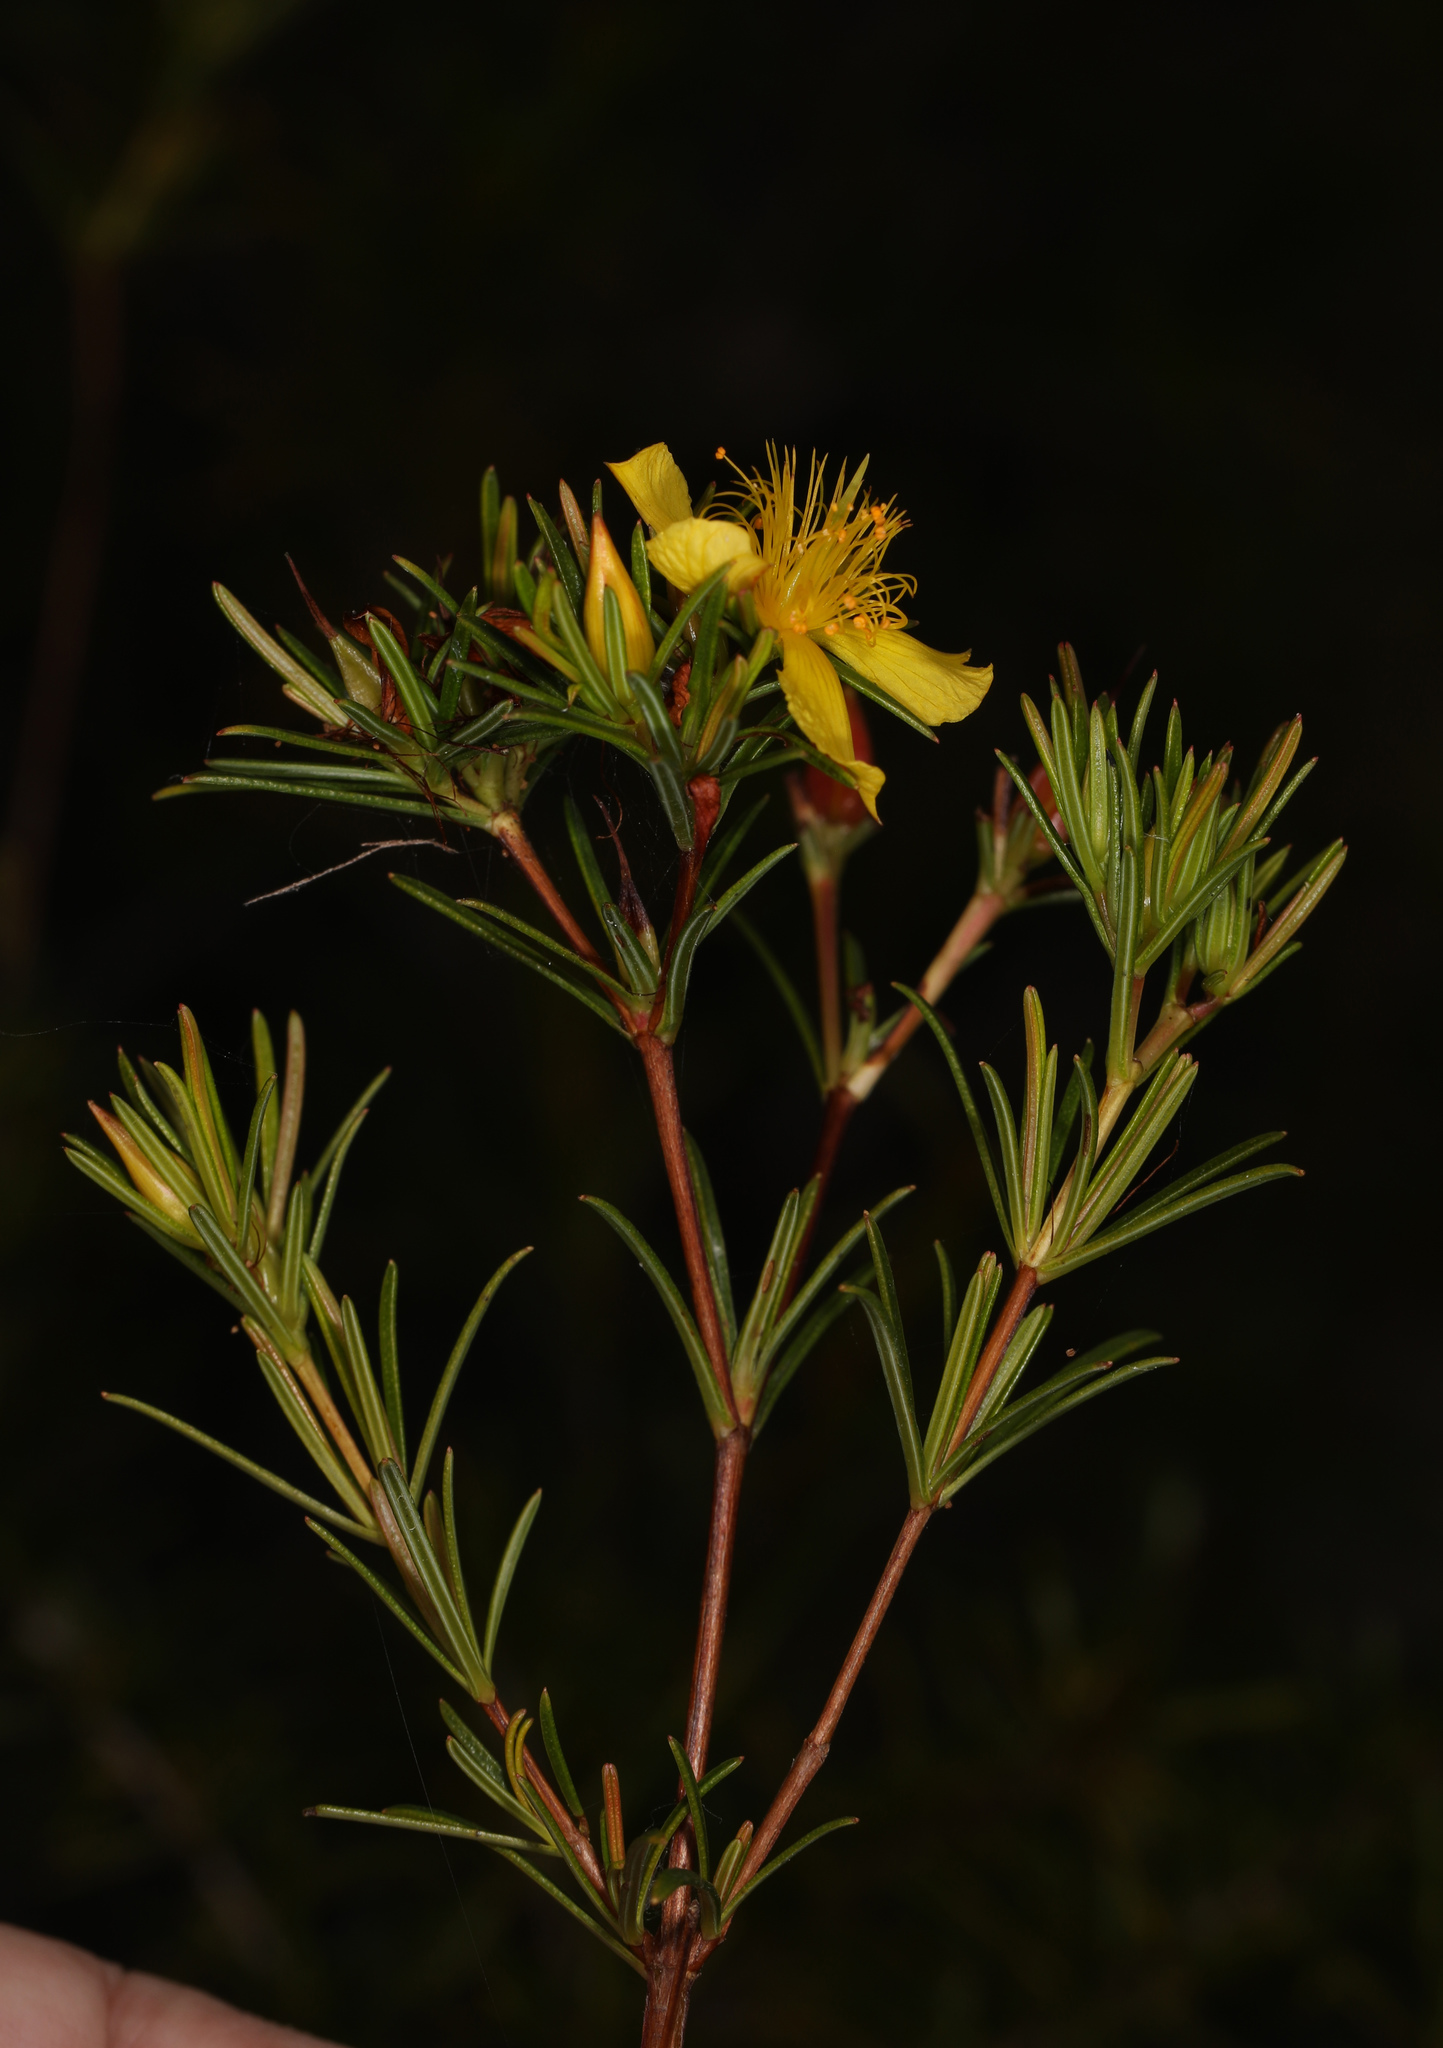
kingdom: Plantae
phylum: Tracheophyta
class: Magnoliopsida
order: Malpighiales
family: Hypericaceae
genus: Hypericum
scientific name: Hypericum fasciculatum
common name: Peelbark st. john's wort
